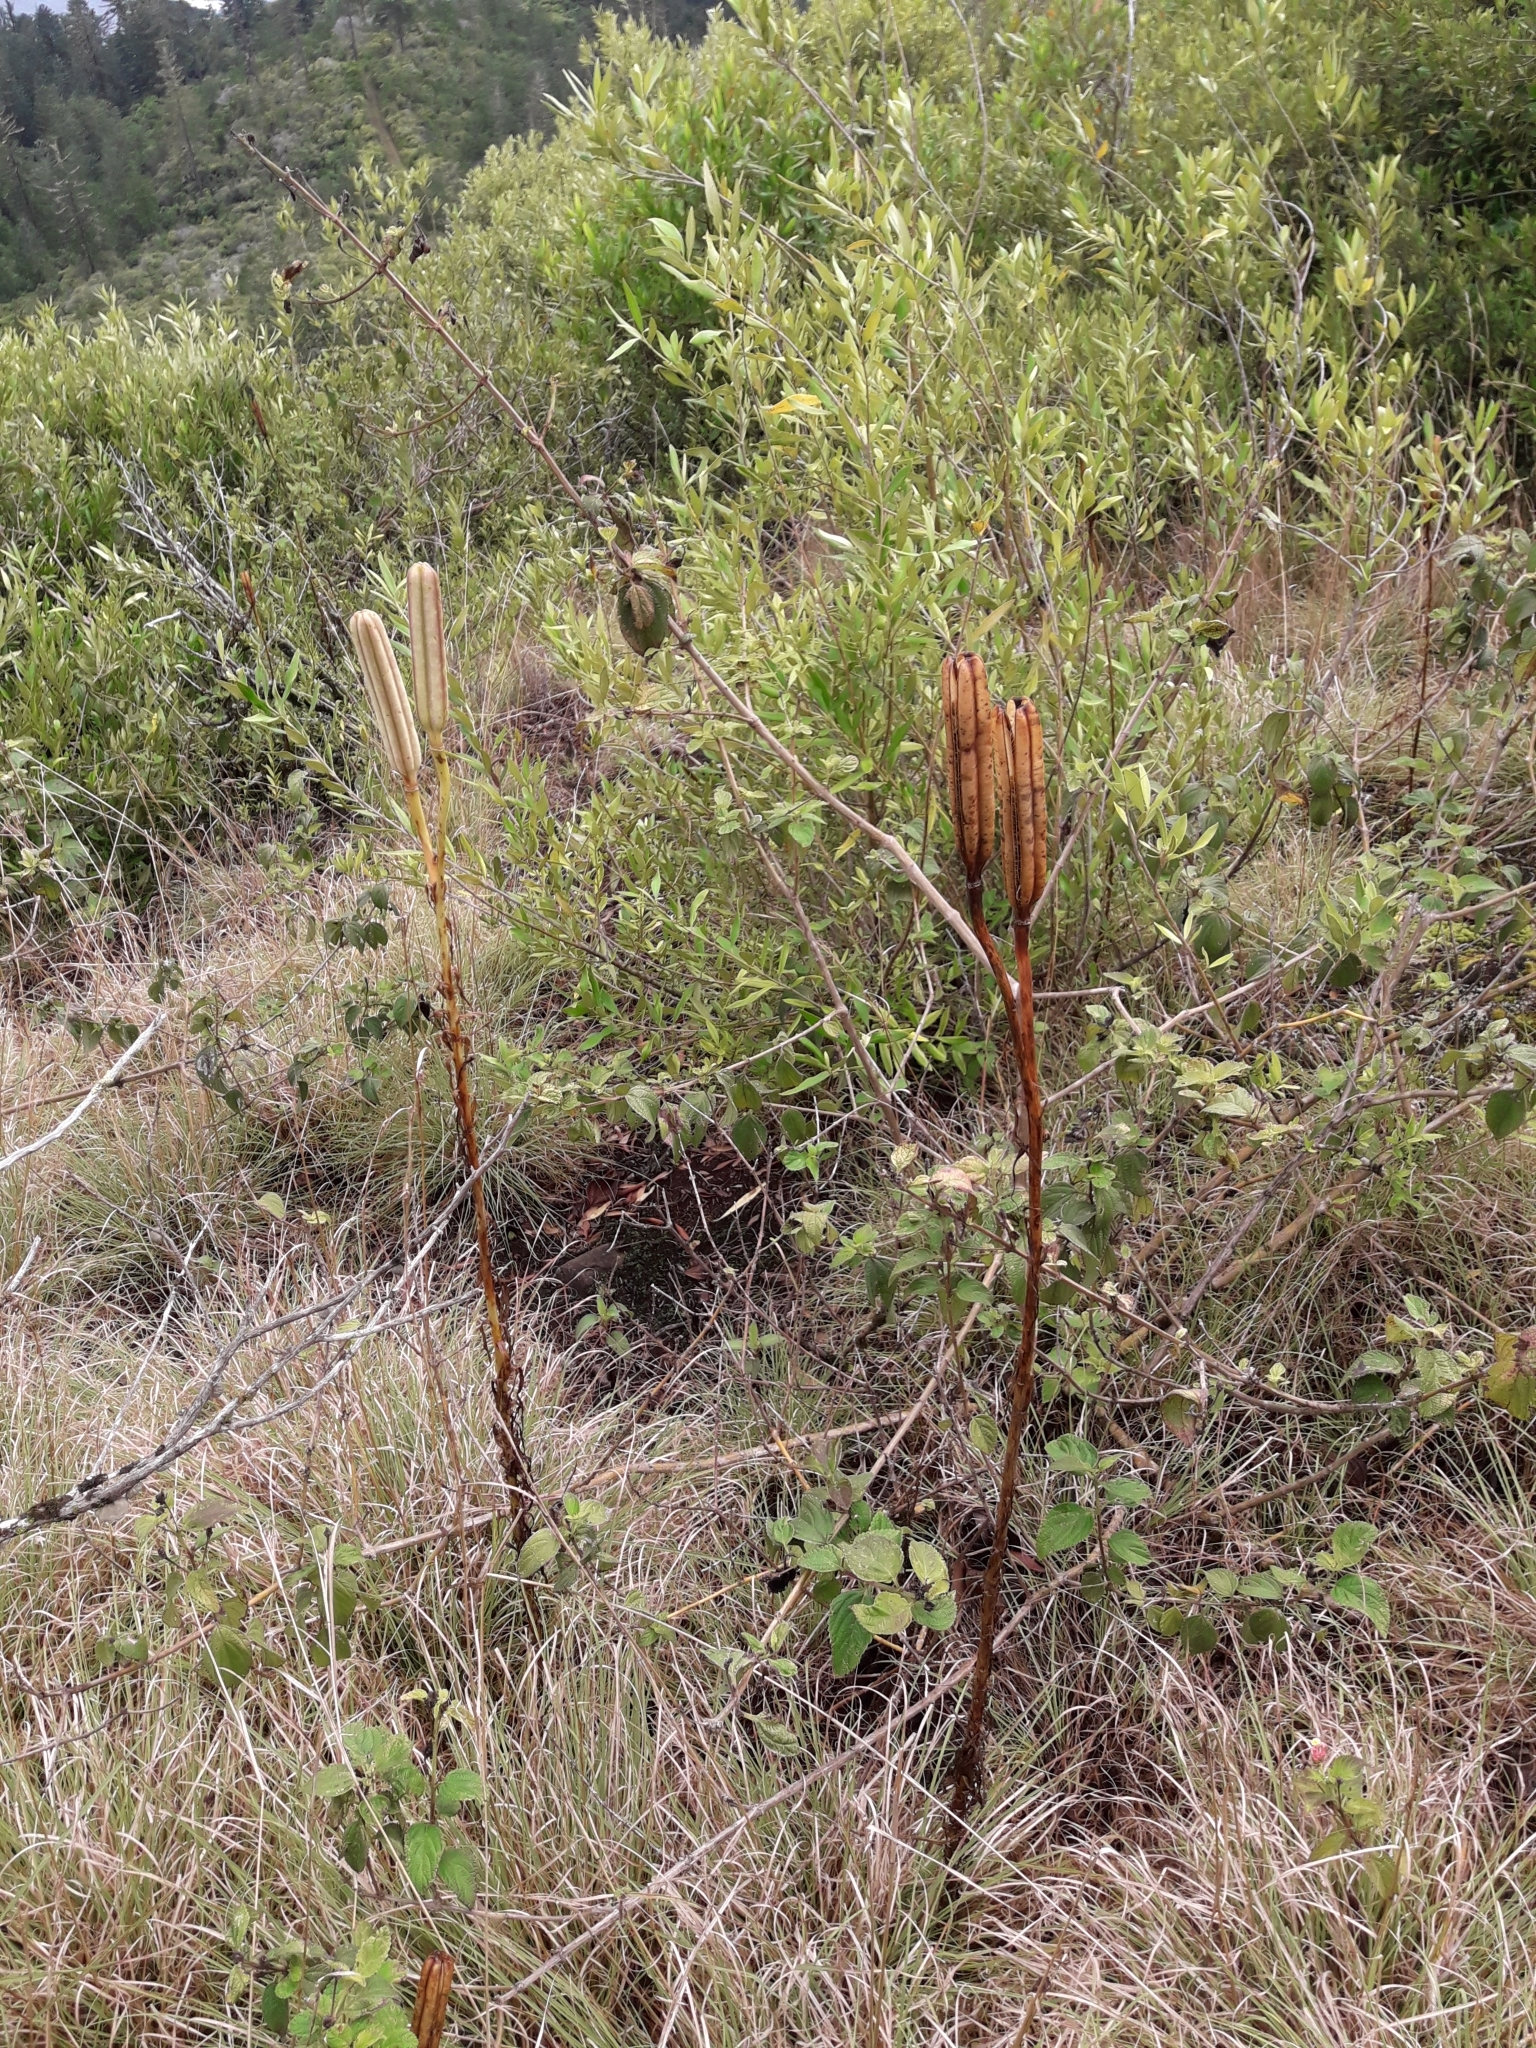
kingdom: Plantae
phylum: Tracheophyta
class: Liliopsida
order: Liliales
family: Liliaceae
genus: Lilium
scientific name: Lilium formosanum
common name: Formosa lily
